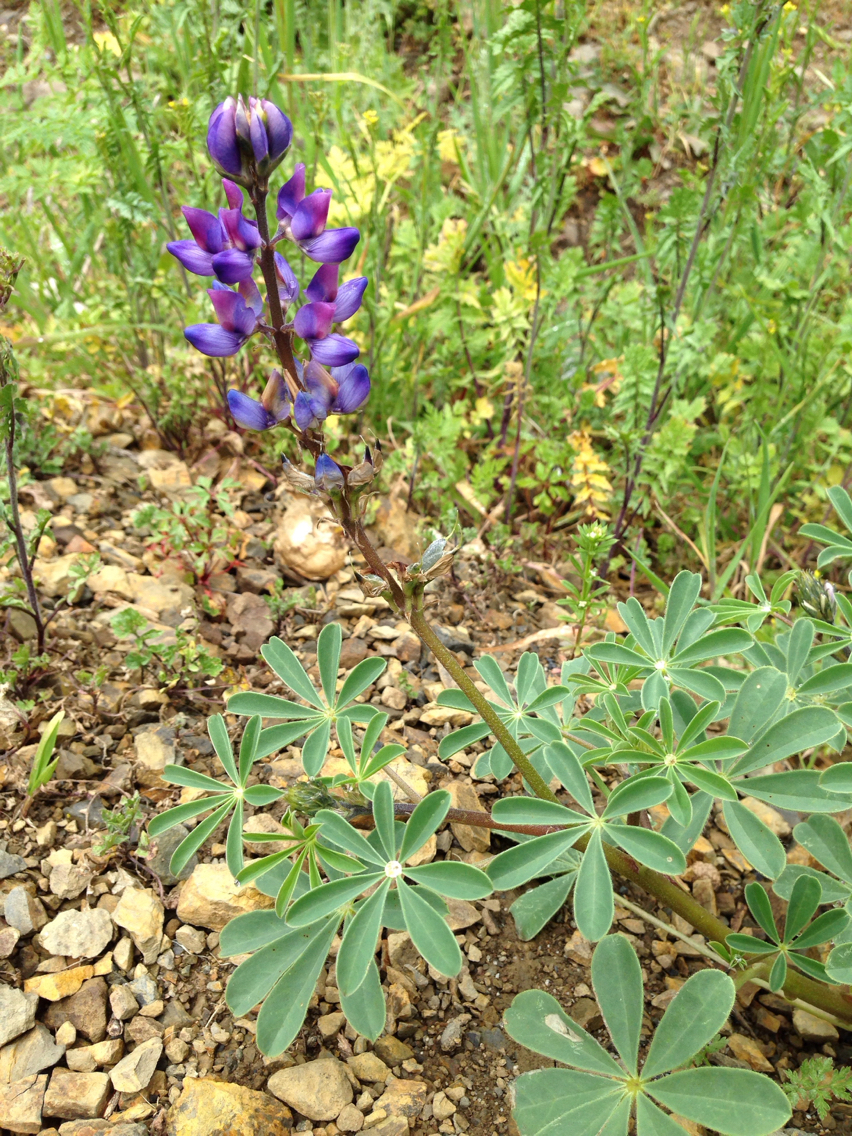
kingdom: Plantae
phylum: Tracheophyta
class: Magnoliopsida
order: Fabales
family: Fabaceae
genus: Lupinus
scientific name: Lupinus succulentus
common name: Arroyo lupine
